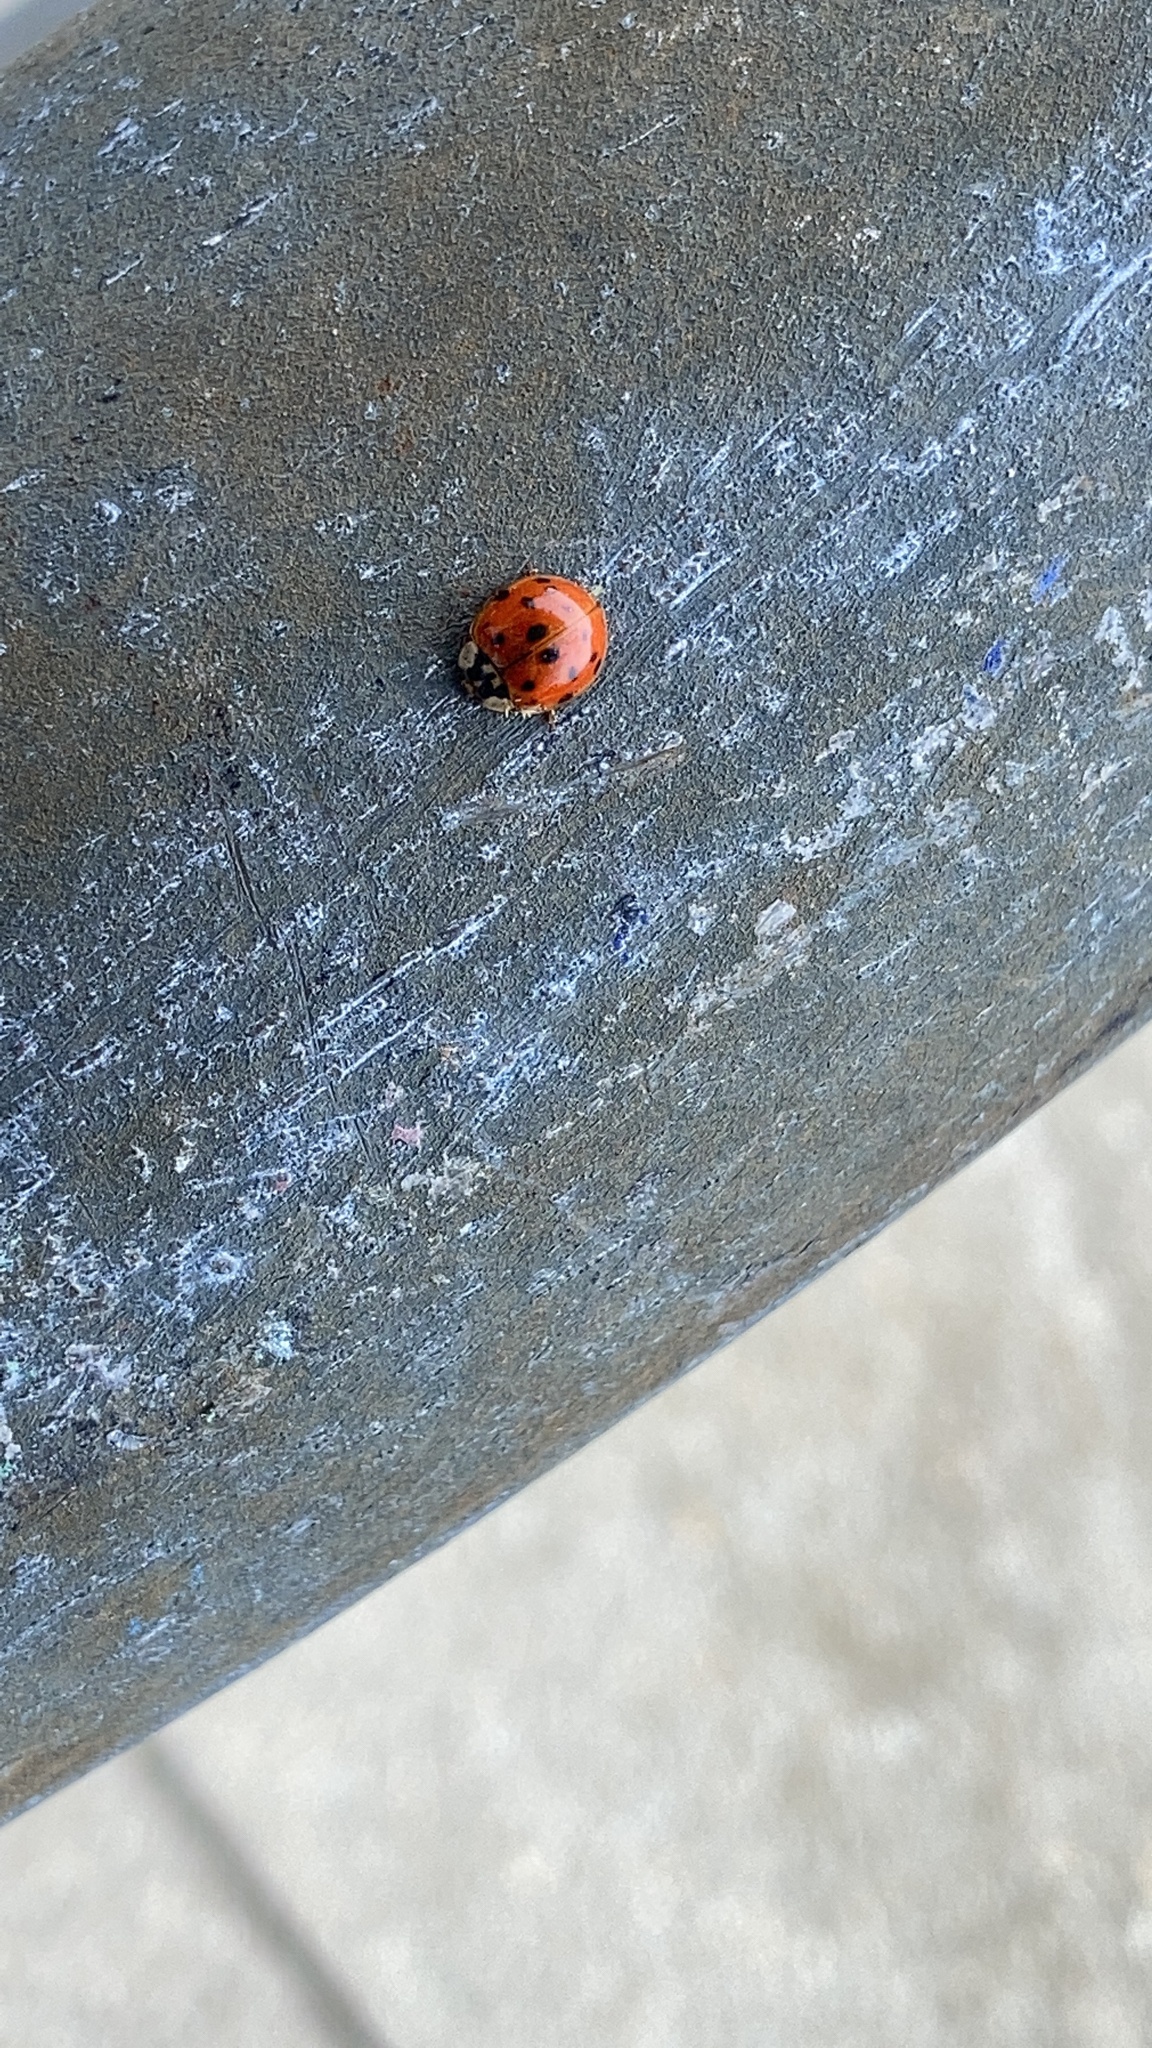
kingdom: Animalia
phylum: Arthropoda
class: Insecta
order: Coleoptera
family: Coccinellidae
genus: Harmonia
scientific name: Harmonia axyridis
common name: Harlequin ladybird
